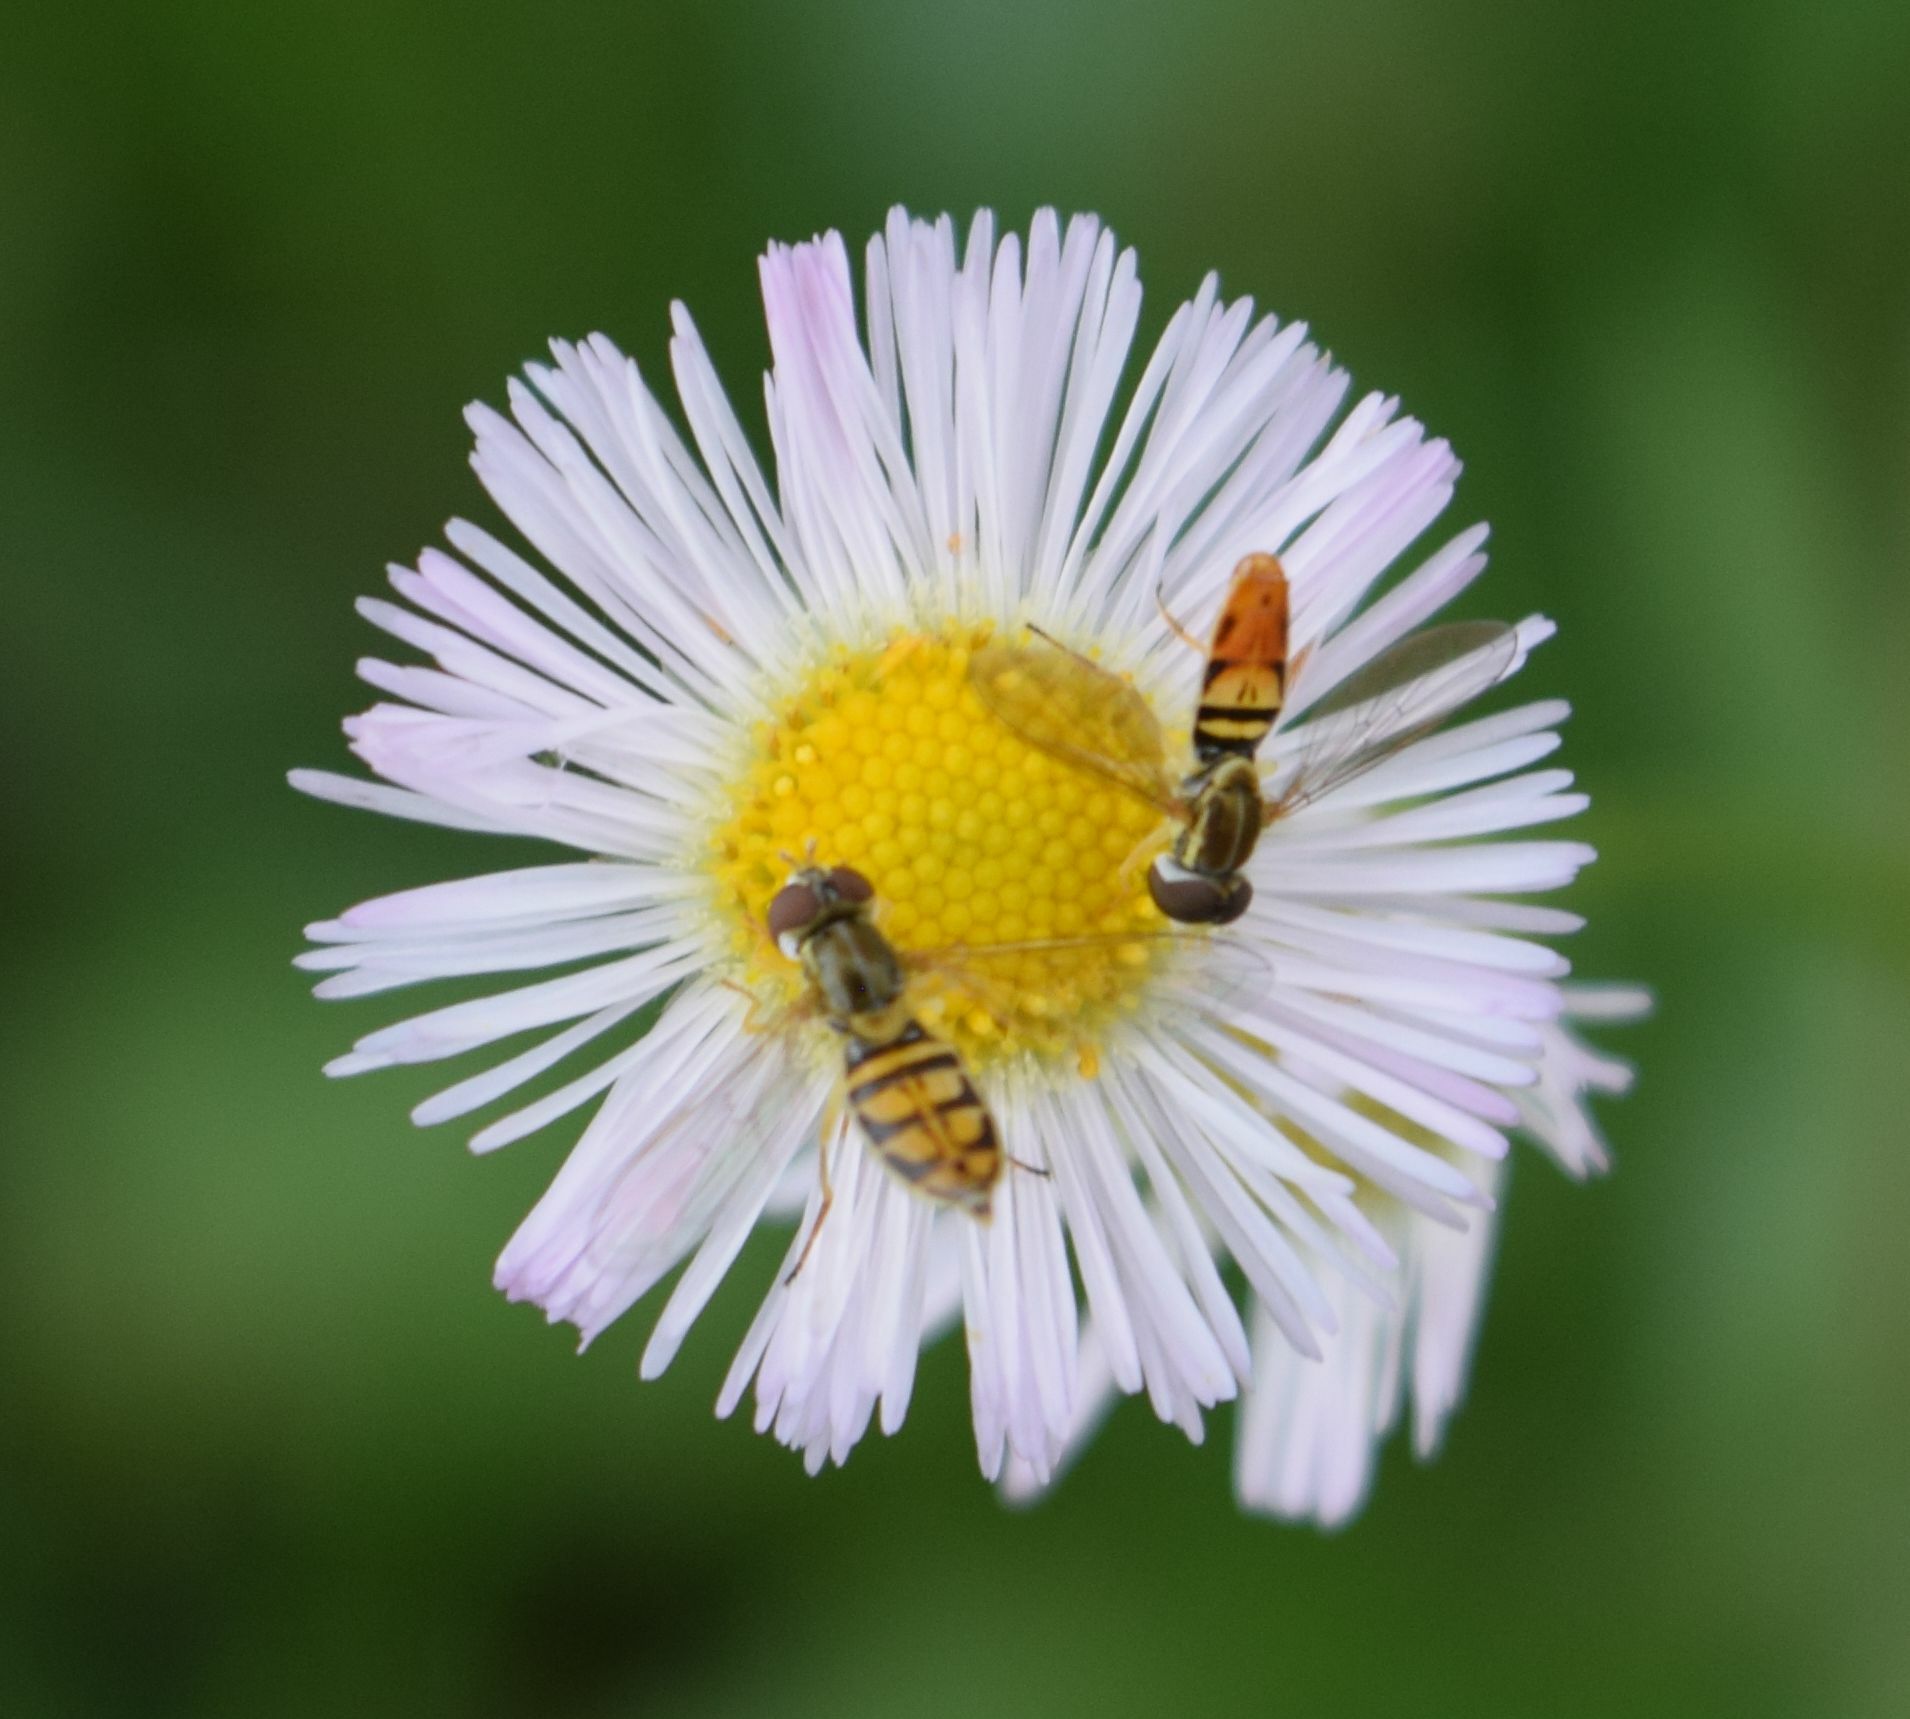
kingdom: Animalia
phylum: Arthropoda
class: Insecta
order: Diptera
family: Syrphidae
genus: Toxomerus
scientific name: Toxomerus marginatus
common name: Syrphid fly
